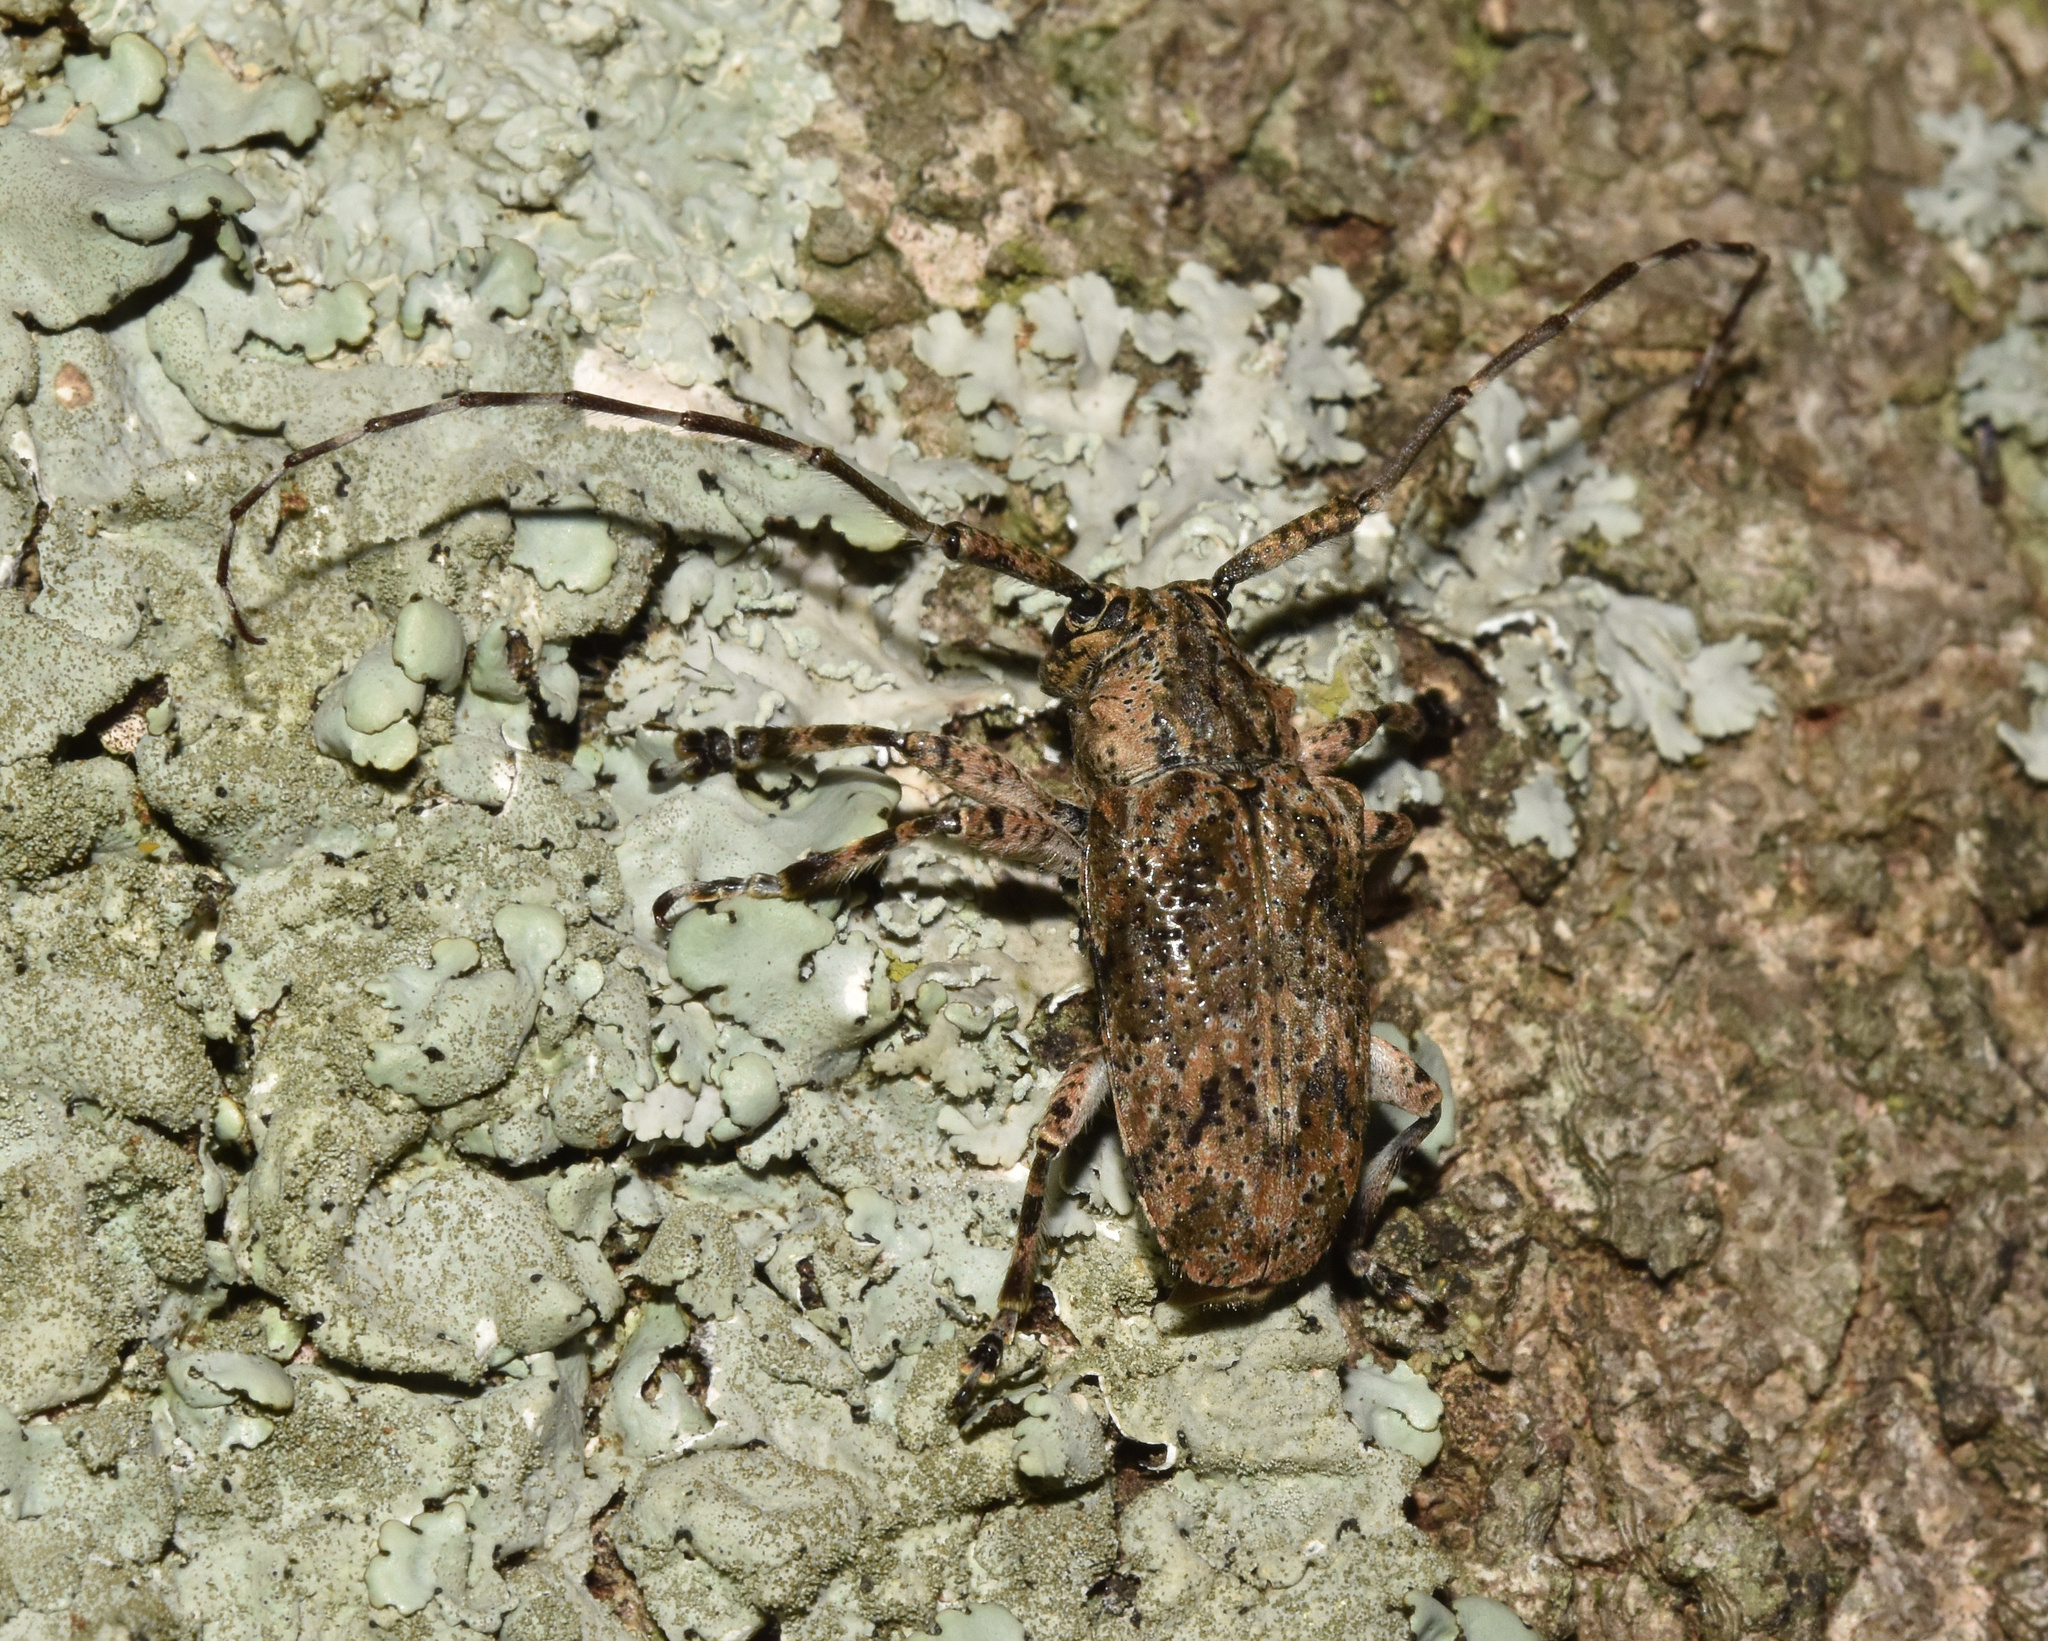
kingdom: Animalia
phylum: Arthropoda
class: Insecta
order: Coleoptera
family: Cerambycidae
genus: Coptops
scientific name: Coptops aedificator
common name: Long-horned beetle
